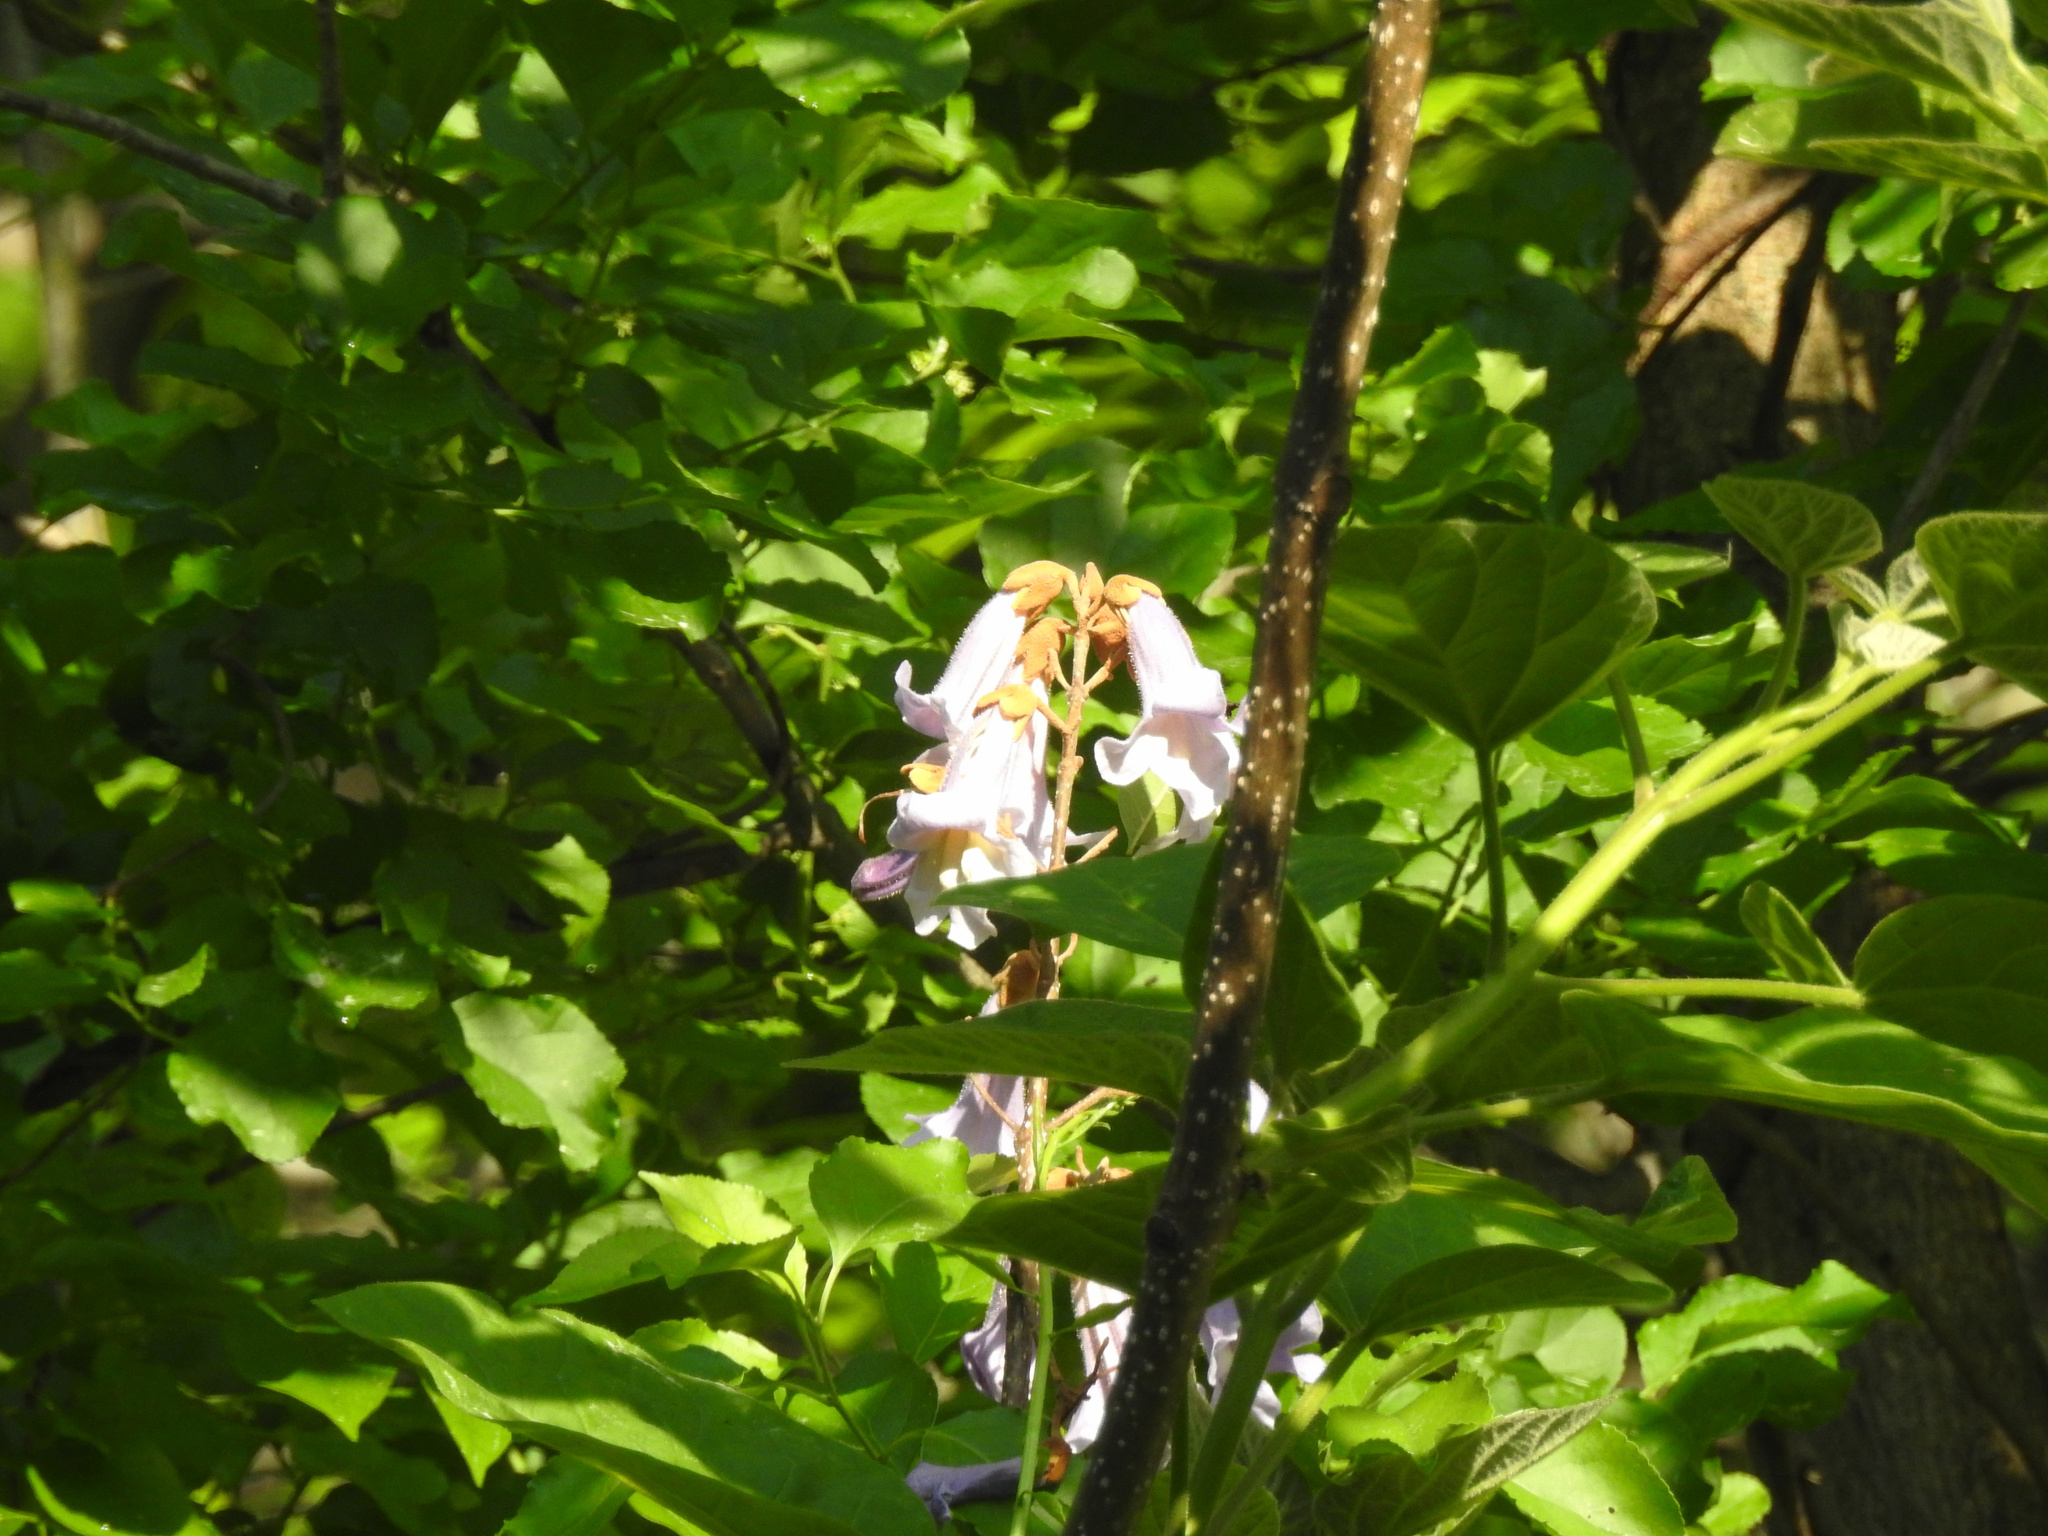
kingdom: Plantae
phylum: Tracheophyta
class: Magnoliopsida
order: Lamiales
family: Paulowniaceae
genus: Paulownia
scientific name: Paulownia tomentosa
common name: Foxglove-tree
